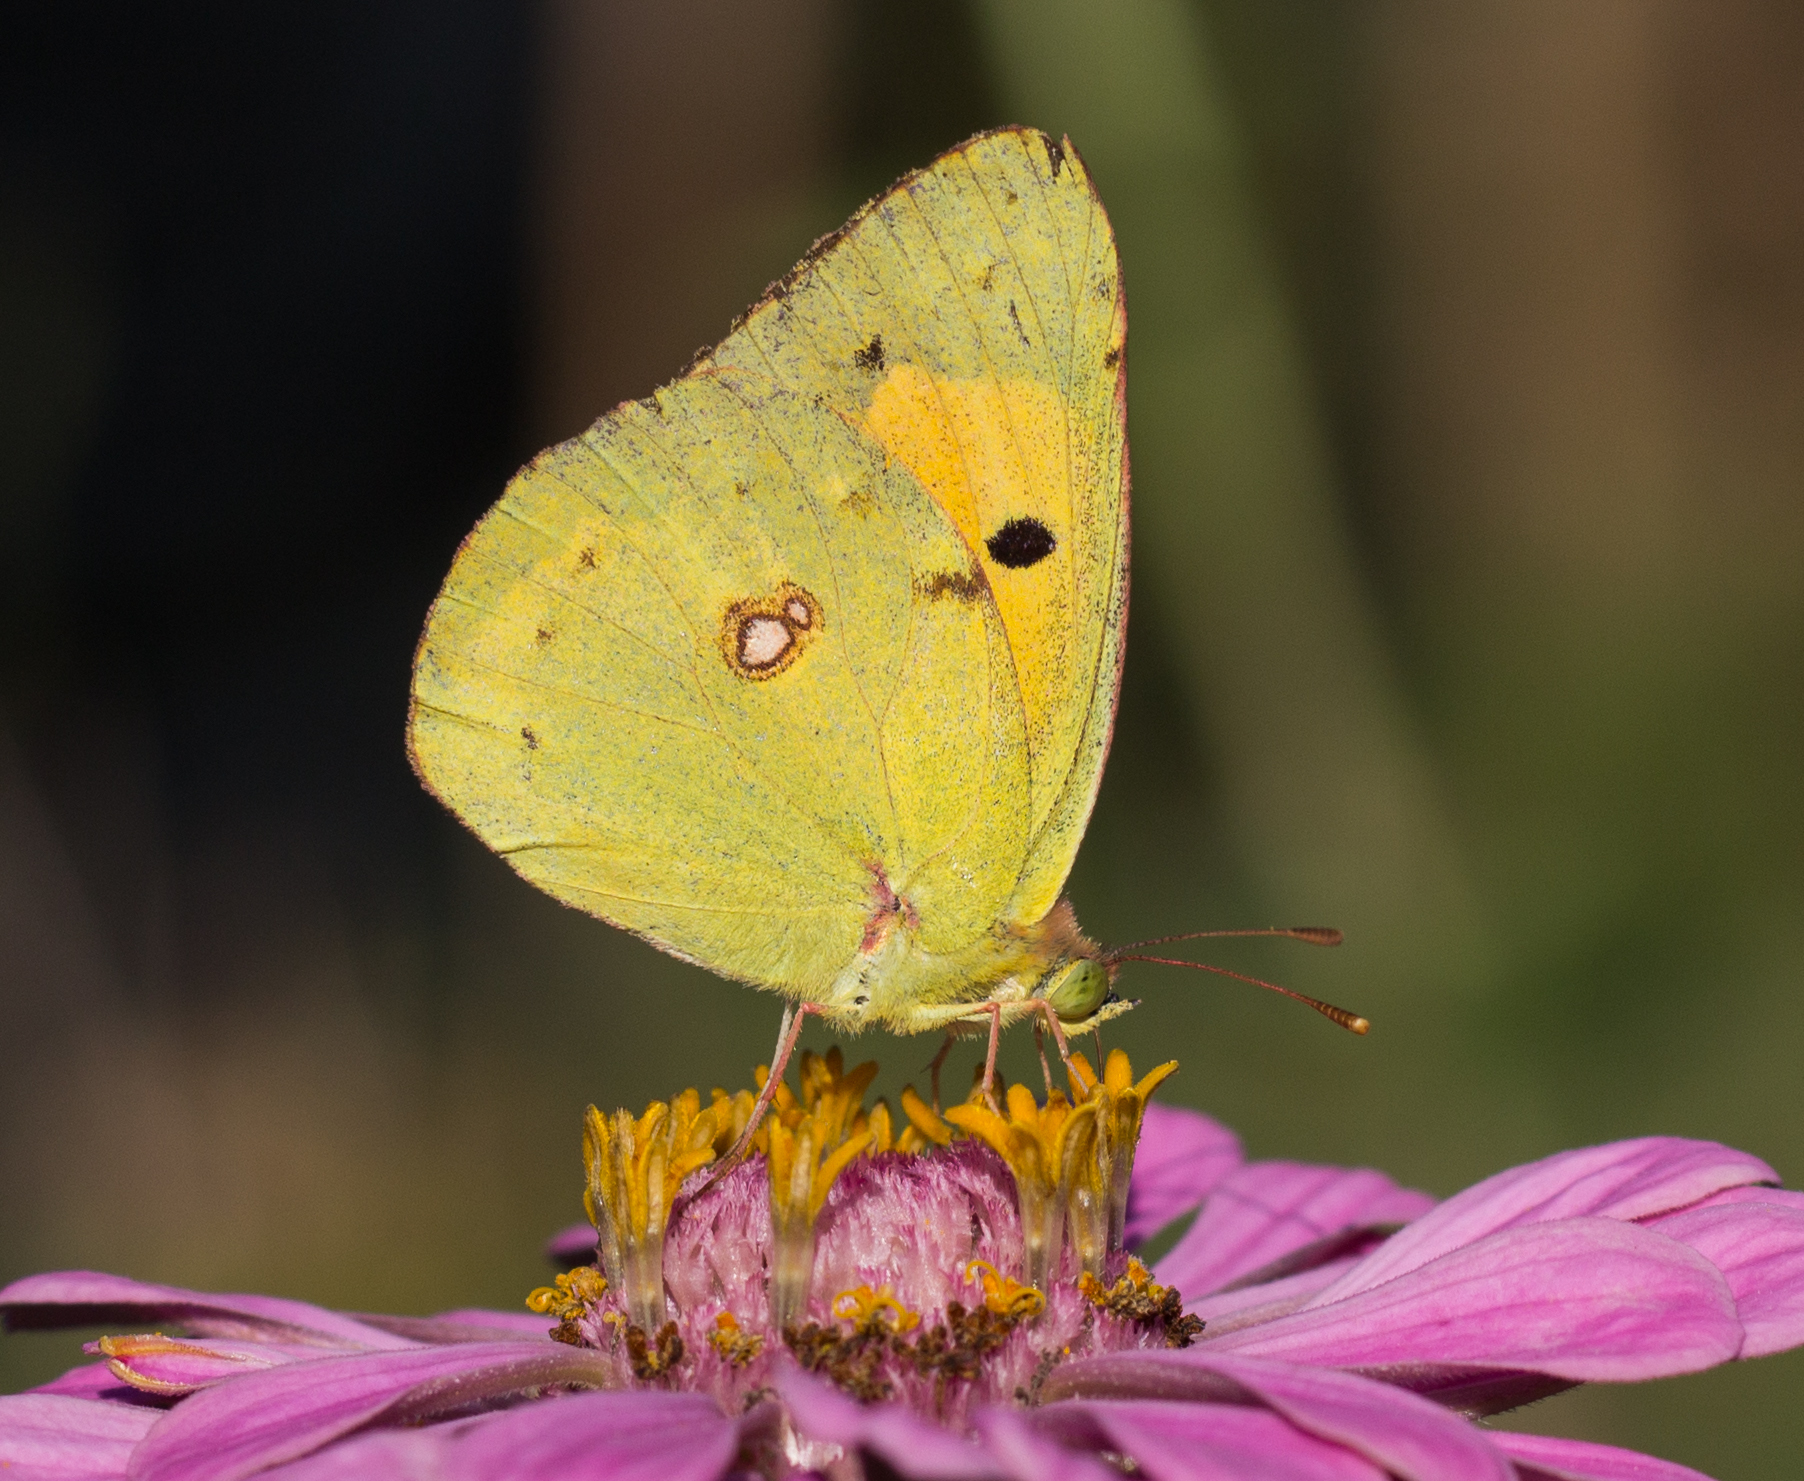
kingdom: Animalia
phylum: Arthropoda
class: Insecta
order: Lepidoptera
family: Pieridae
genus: Colias
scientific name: Colias croceus
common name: Clouded yellow
